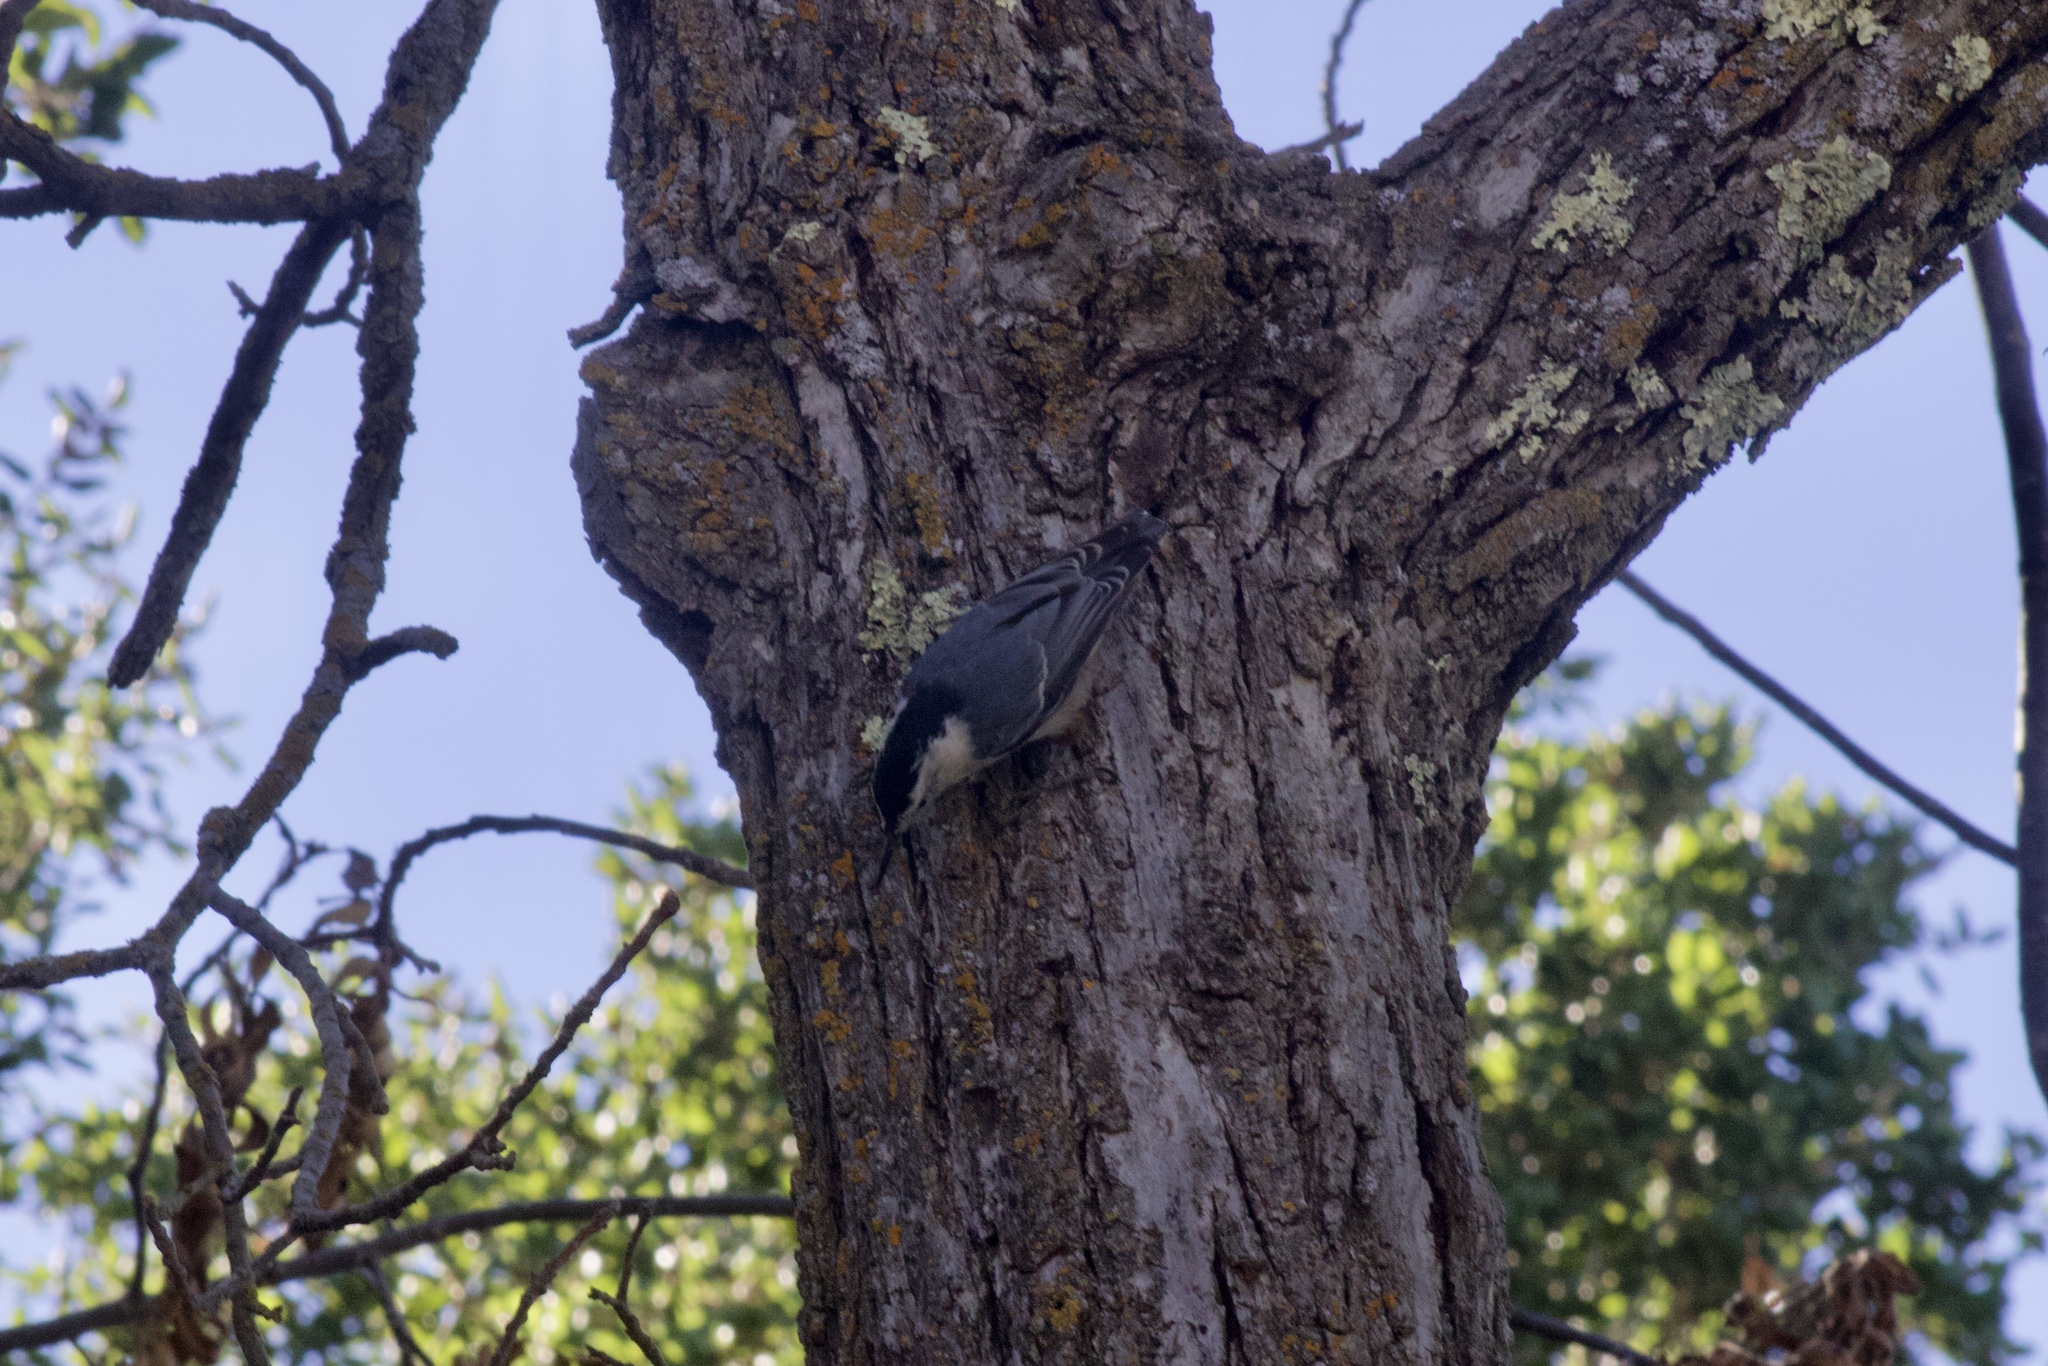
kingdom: Animalia
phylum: Chordata
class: Aves
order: Passeriformes
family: Sittidae
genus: Sitta
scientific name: Sitta carolinensis
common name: White-breasted nuthatch
